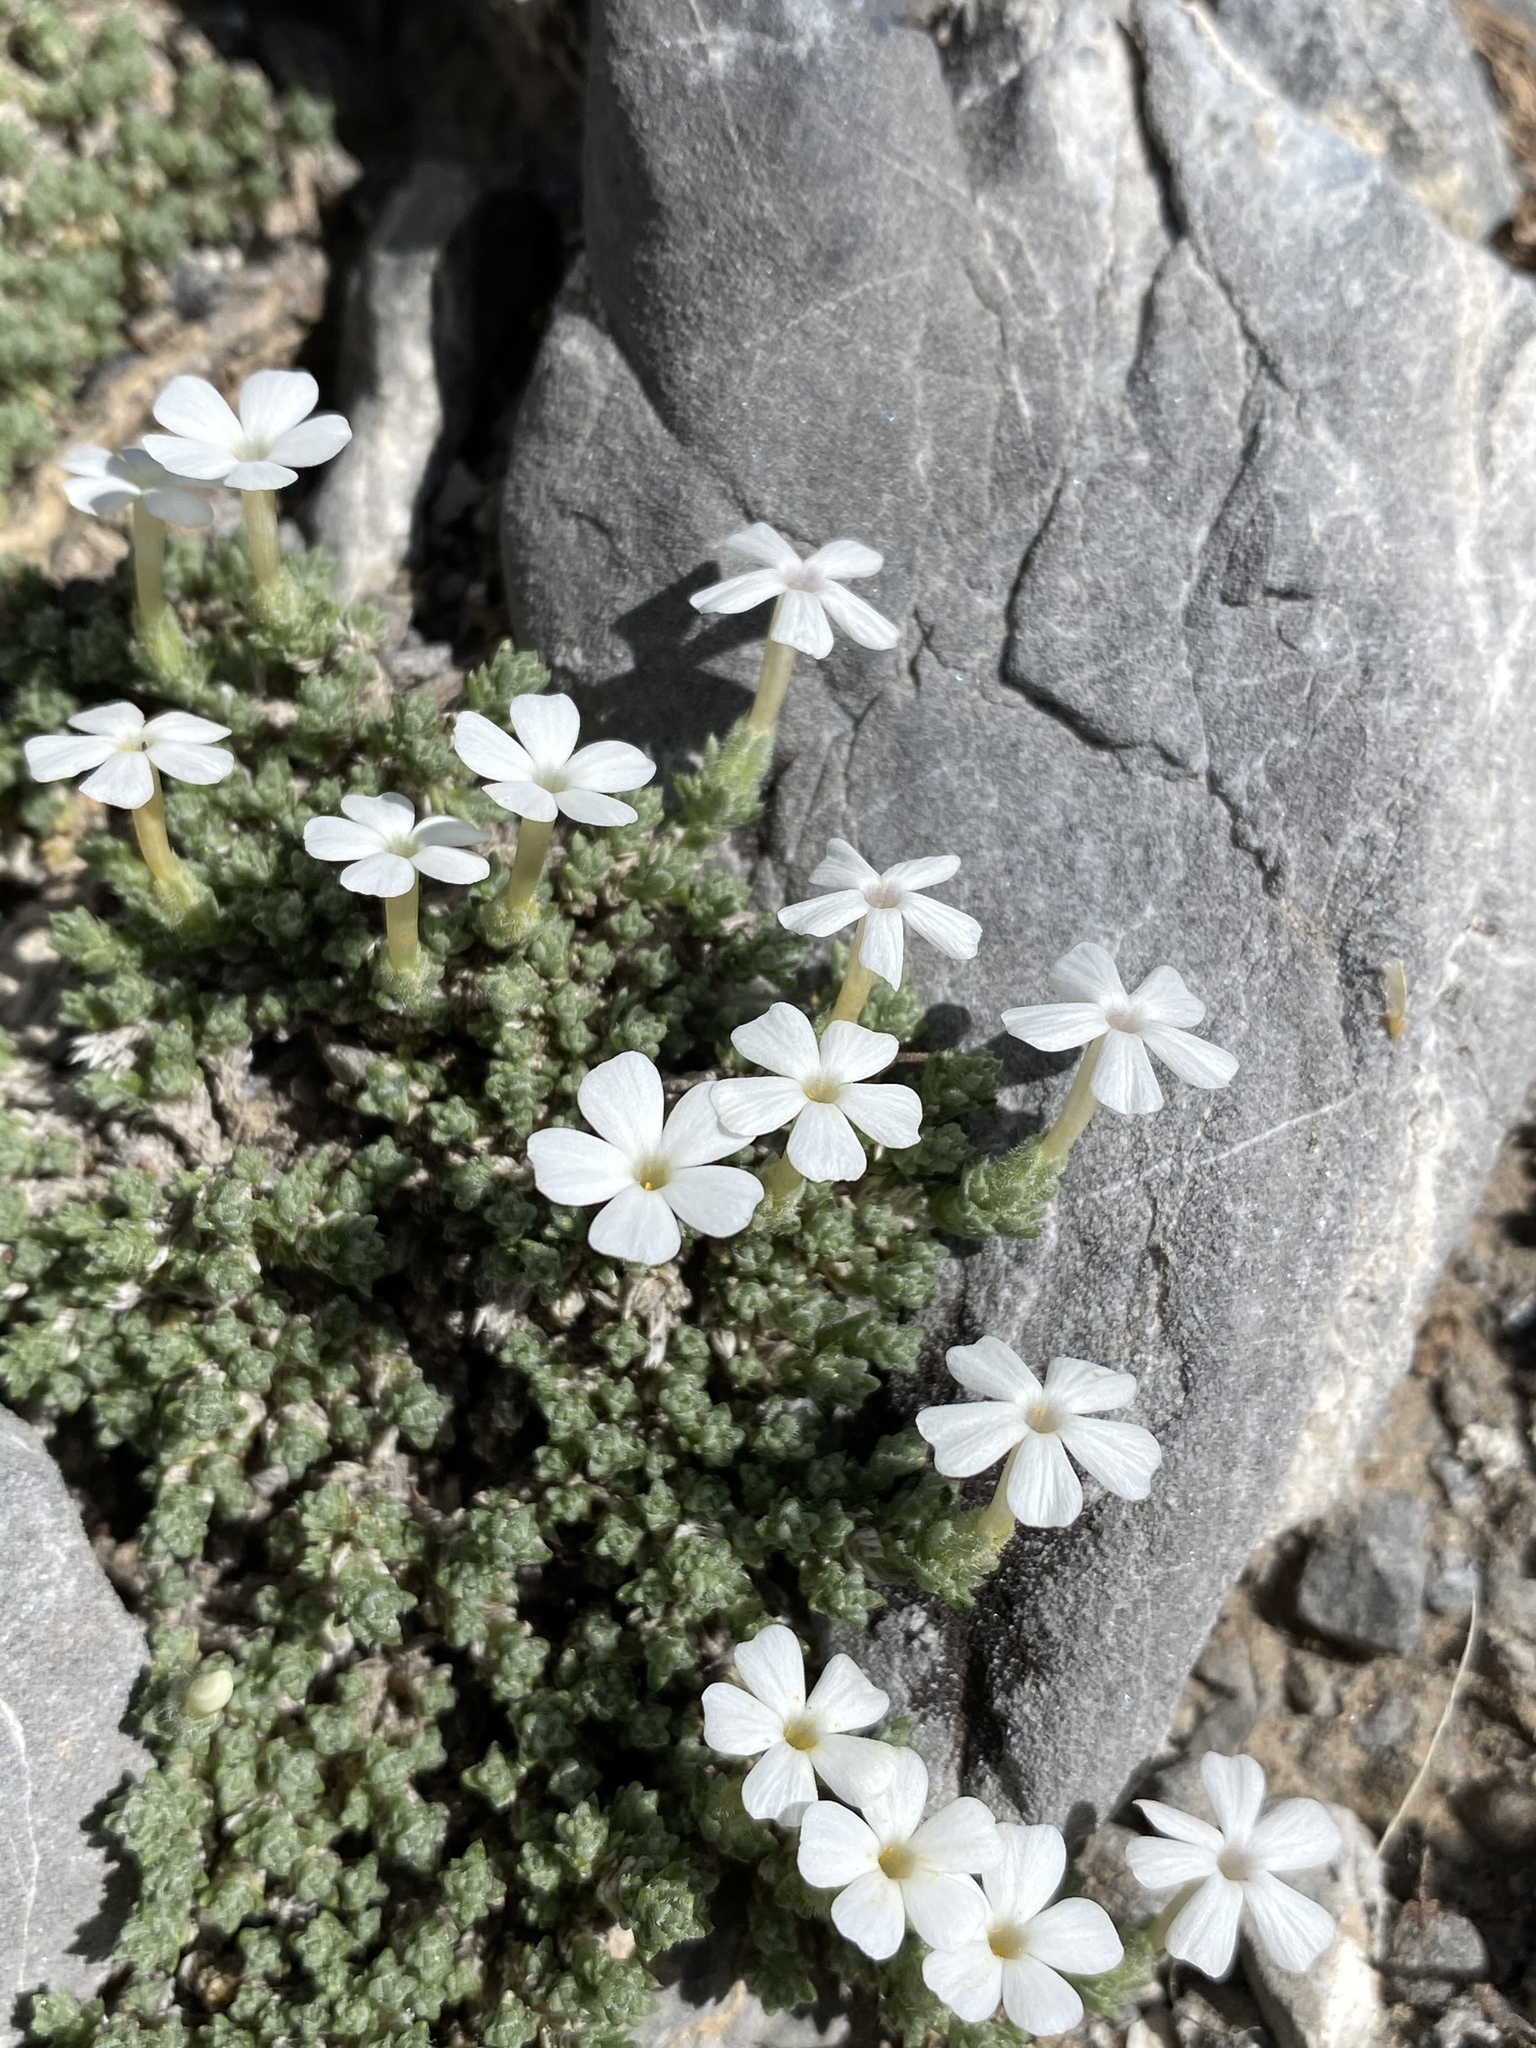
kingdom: Plantae
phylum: Tracheophyta
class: Magnoliopsida
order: Ericales
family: Polemoniaceae
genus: Phlox
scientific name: Phlox condensata
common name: Compact phlox
